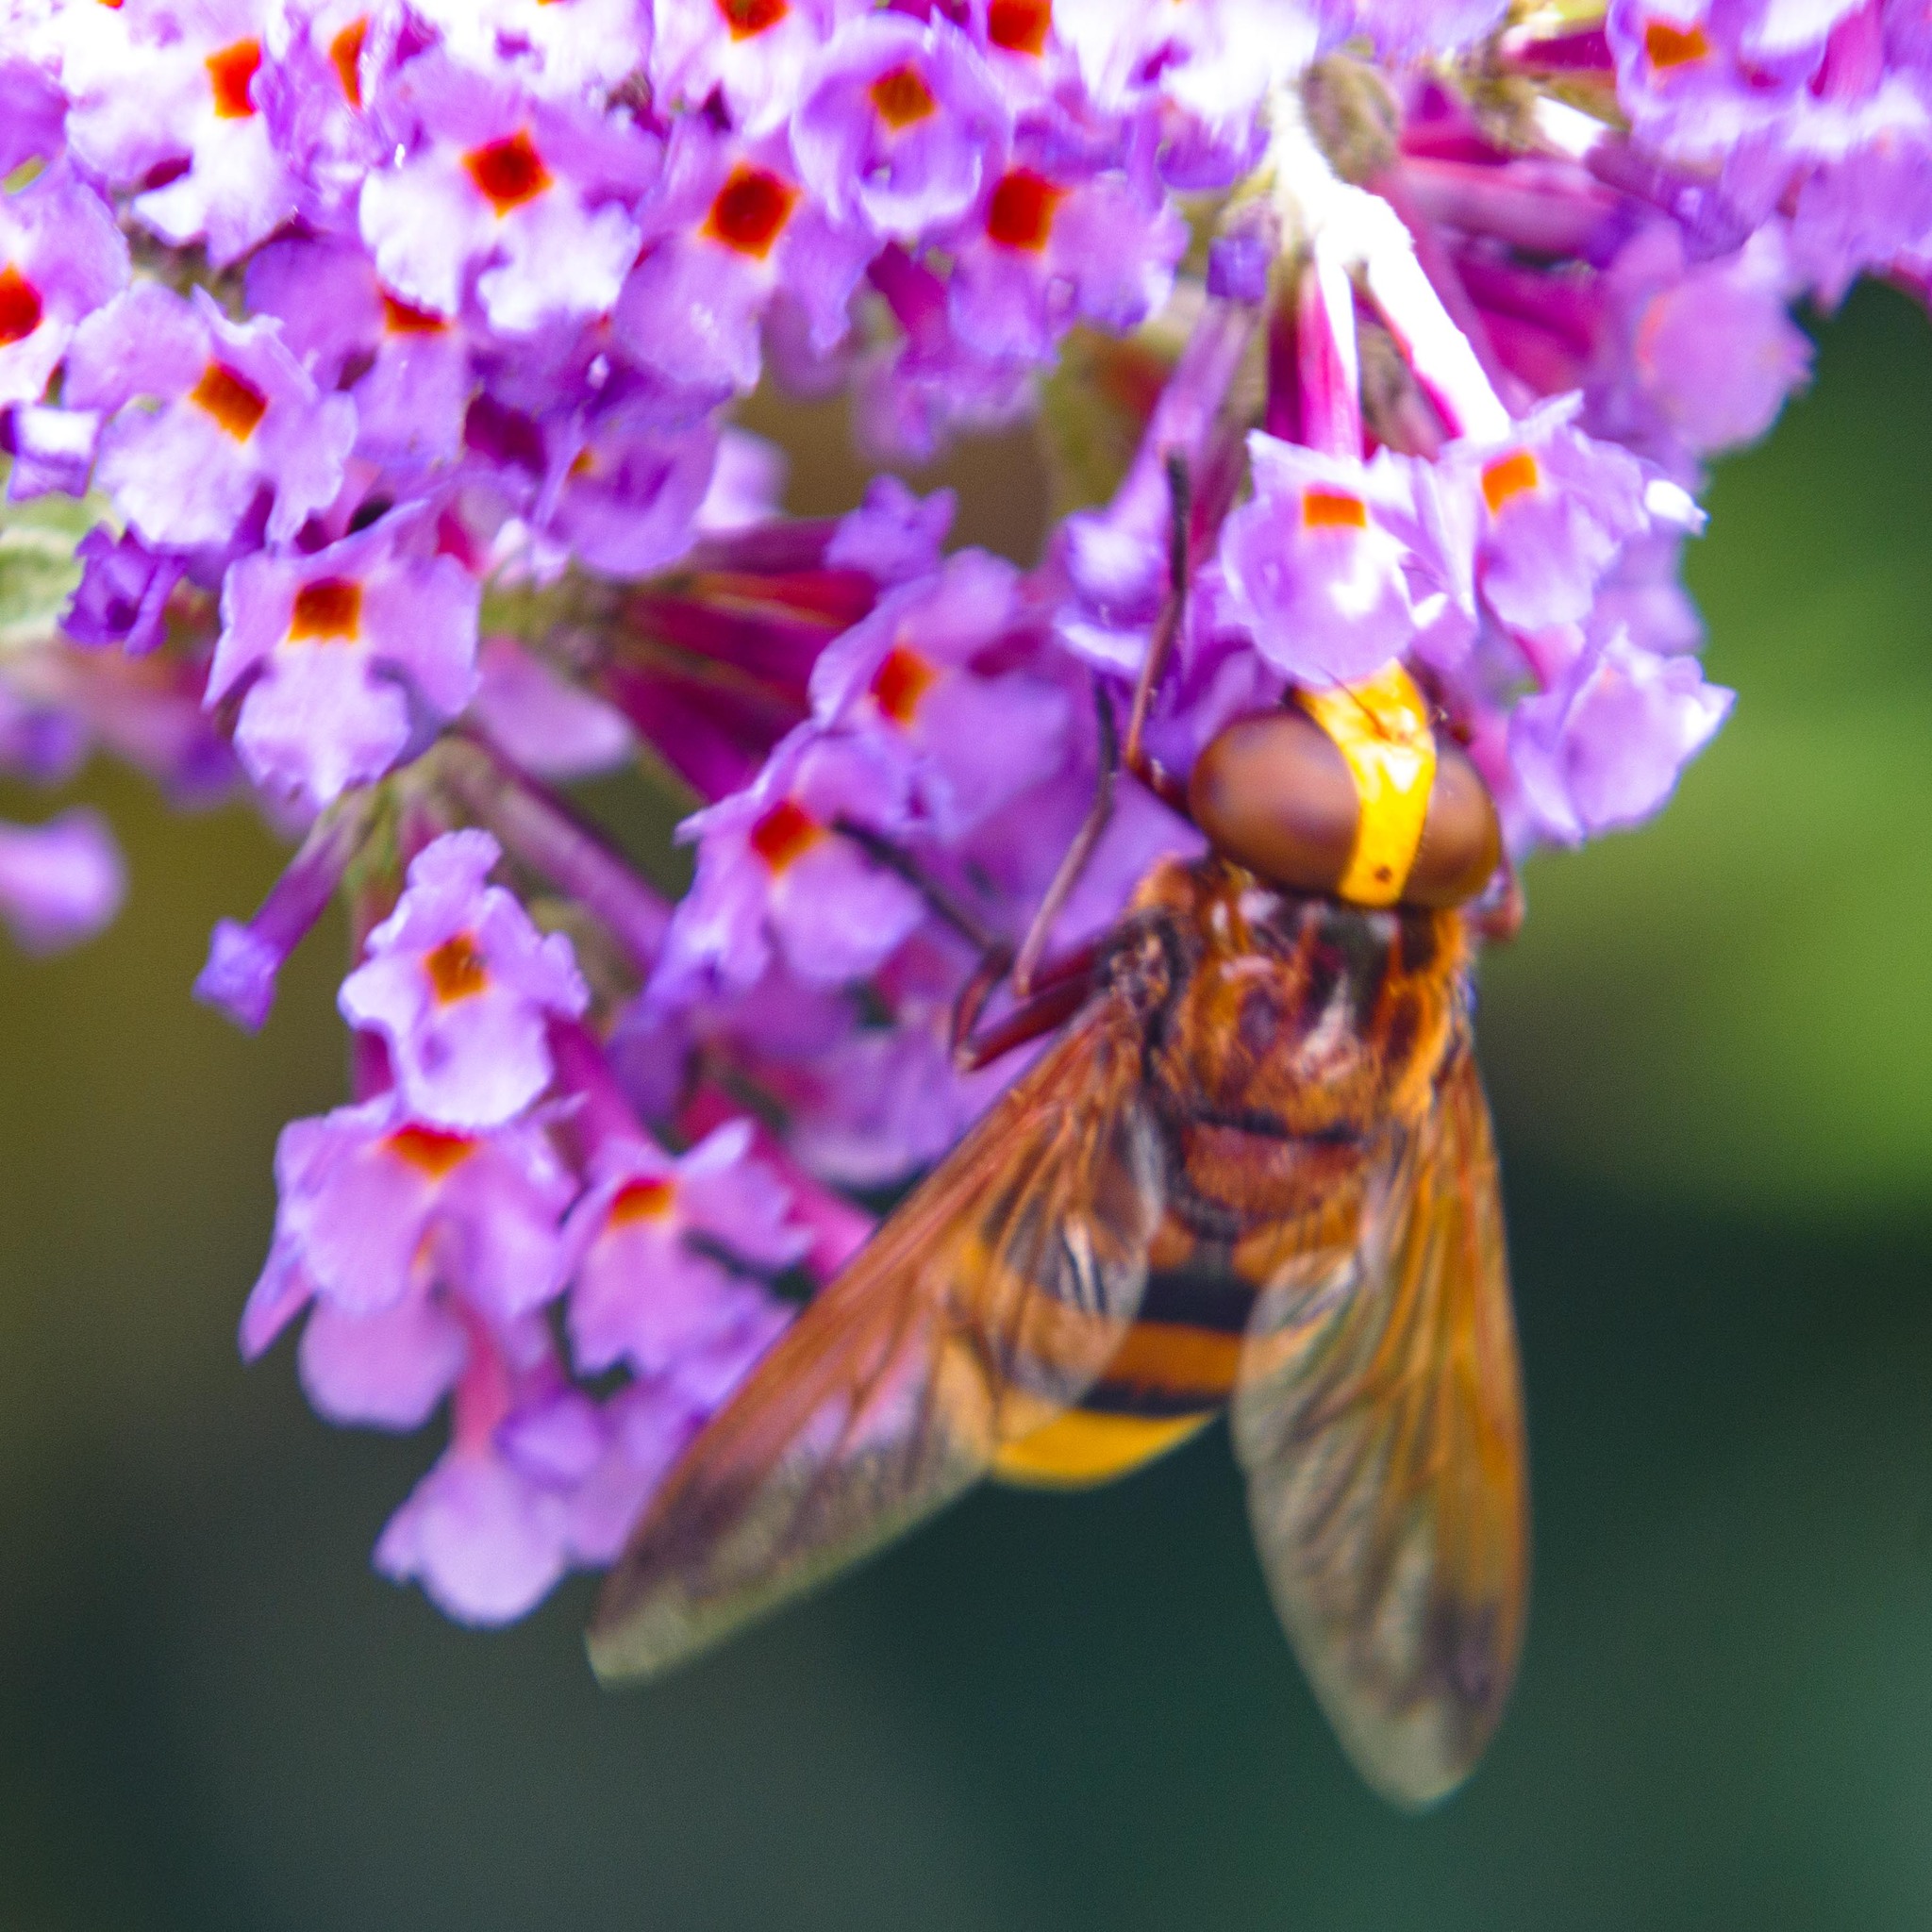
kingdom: Animalia
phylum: Arthropoda
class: Insecta
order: Diptera
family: Syrphidae
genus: Volucella
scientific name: Volucella zonaria
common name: Hornet hoverfly
